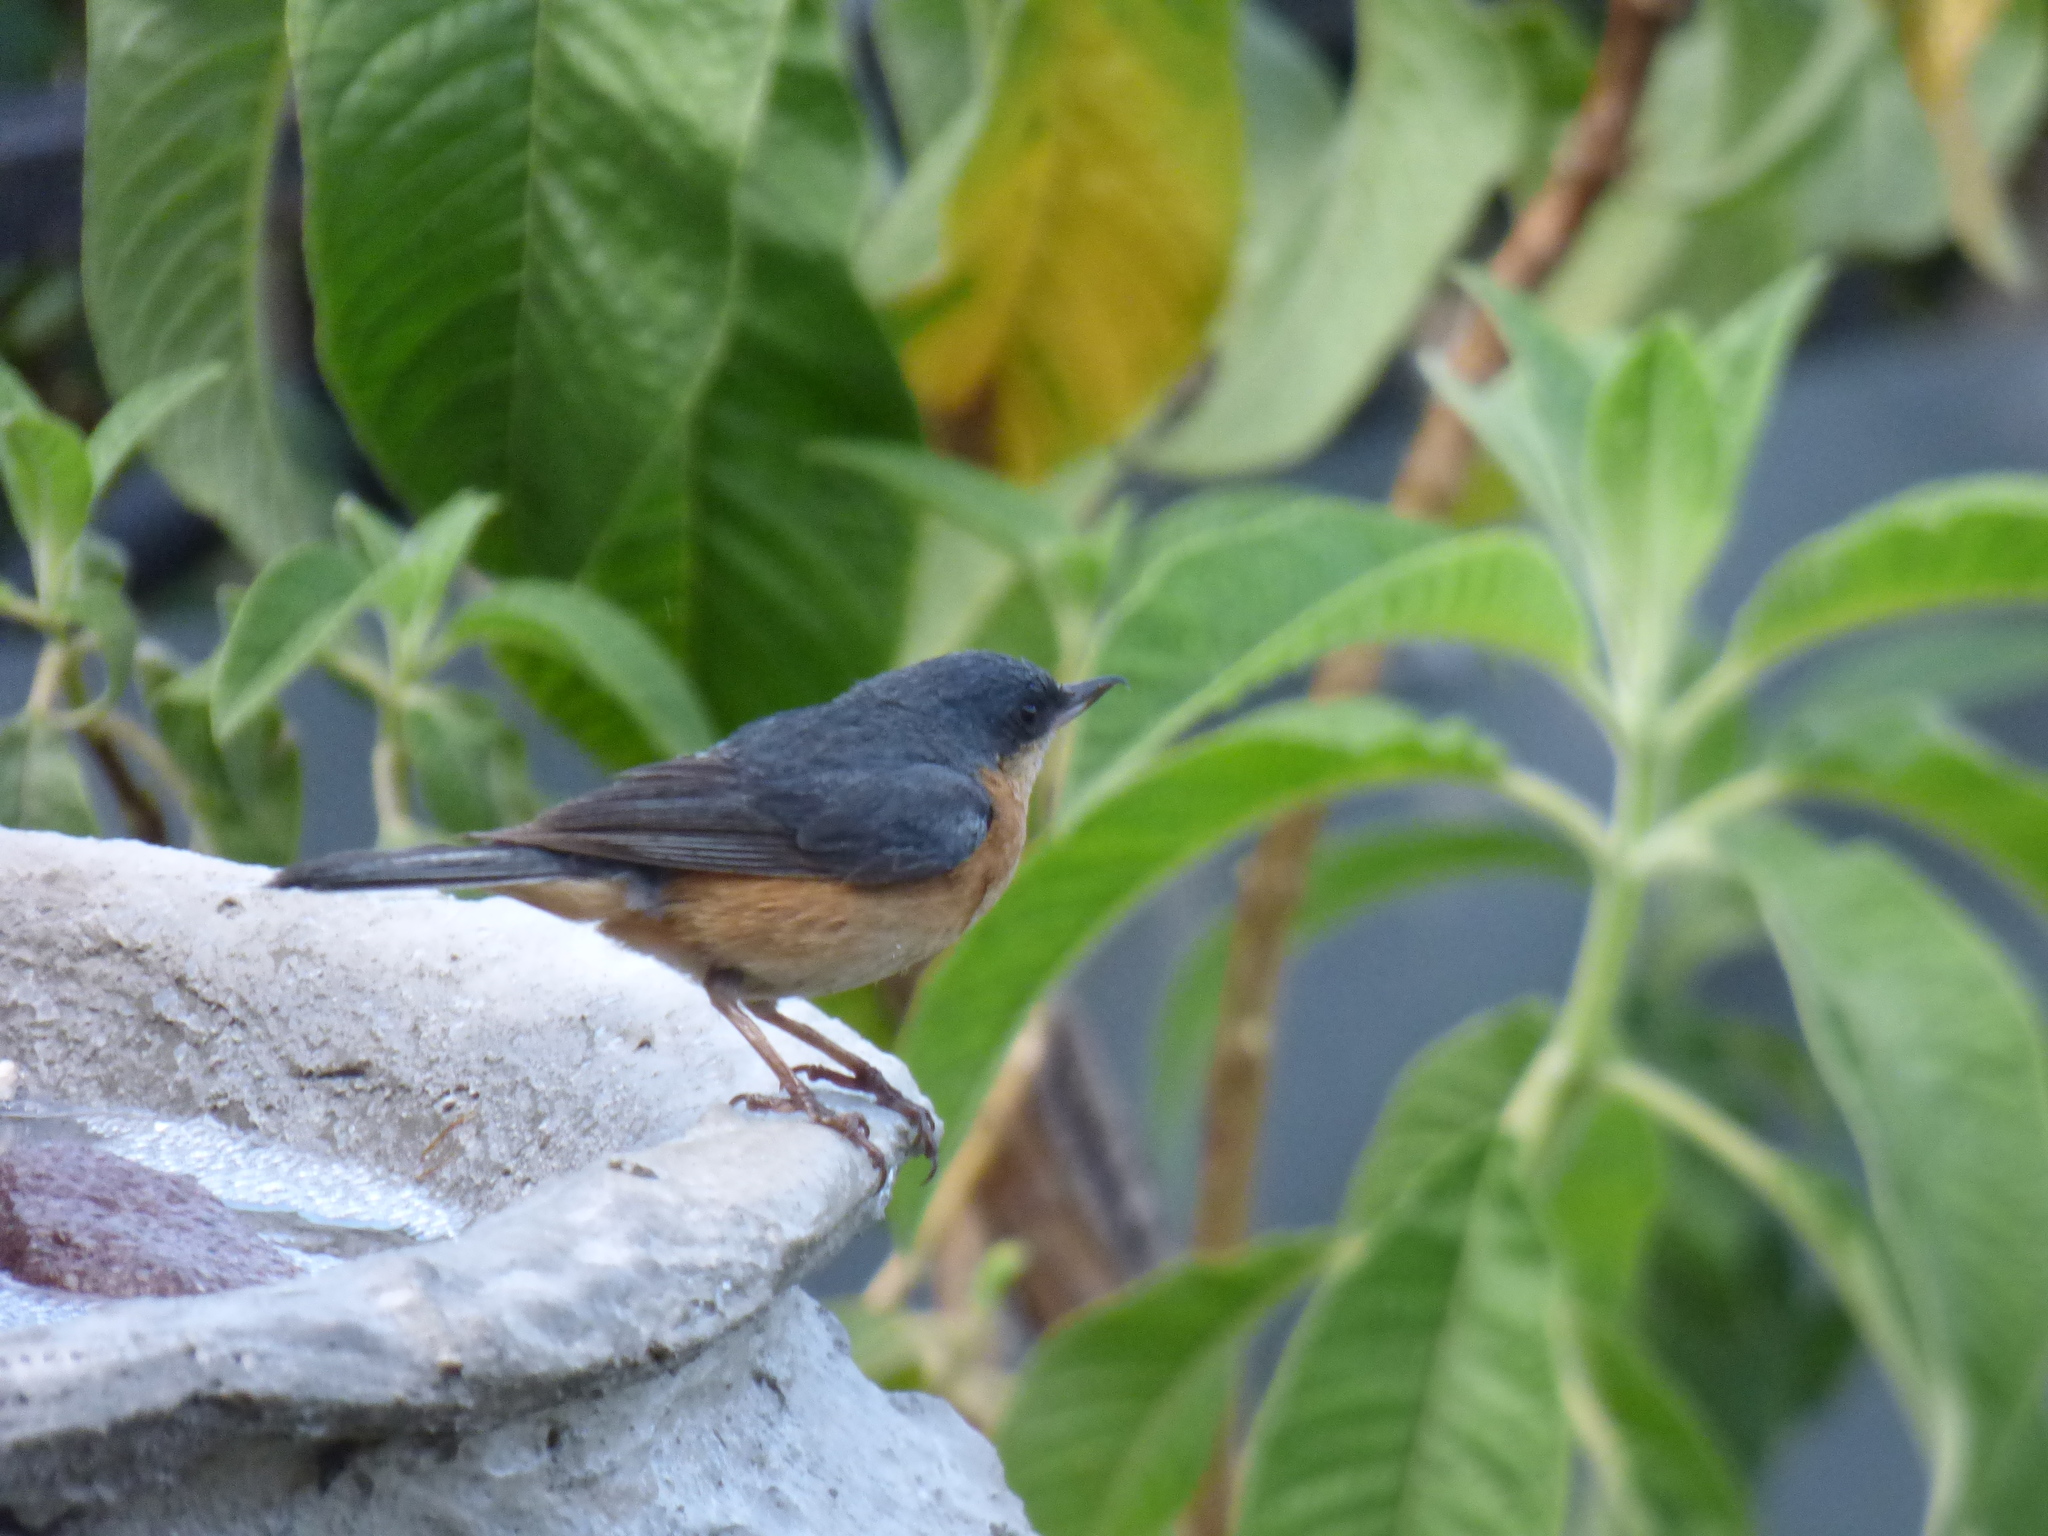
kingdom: Animalia
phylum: Chordata
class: Aves
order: Passeriformes
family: Thraupidae
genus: Diglossa
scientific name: Diglossa sittoides
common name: Rusty flowerpiercer
